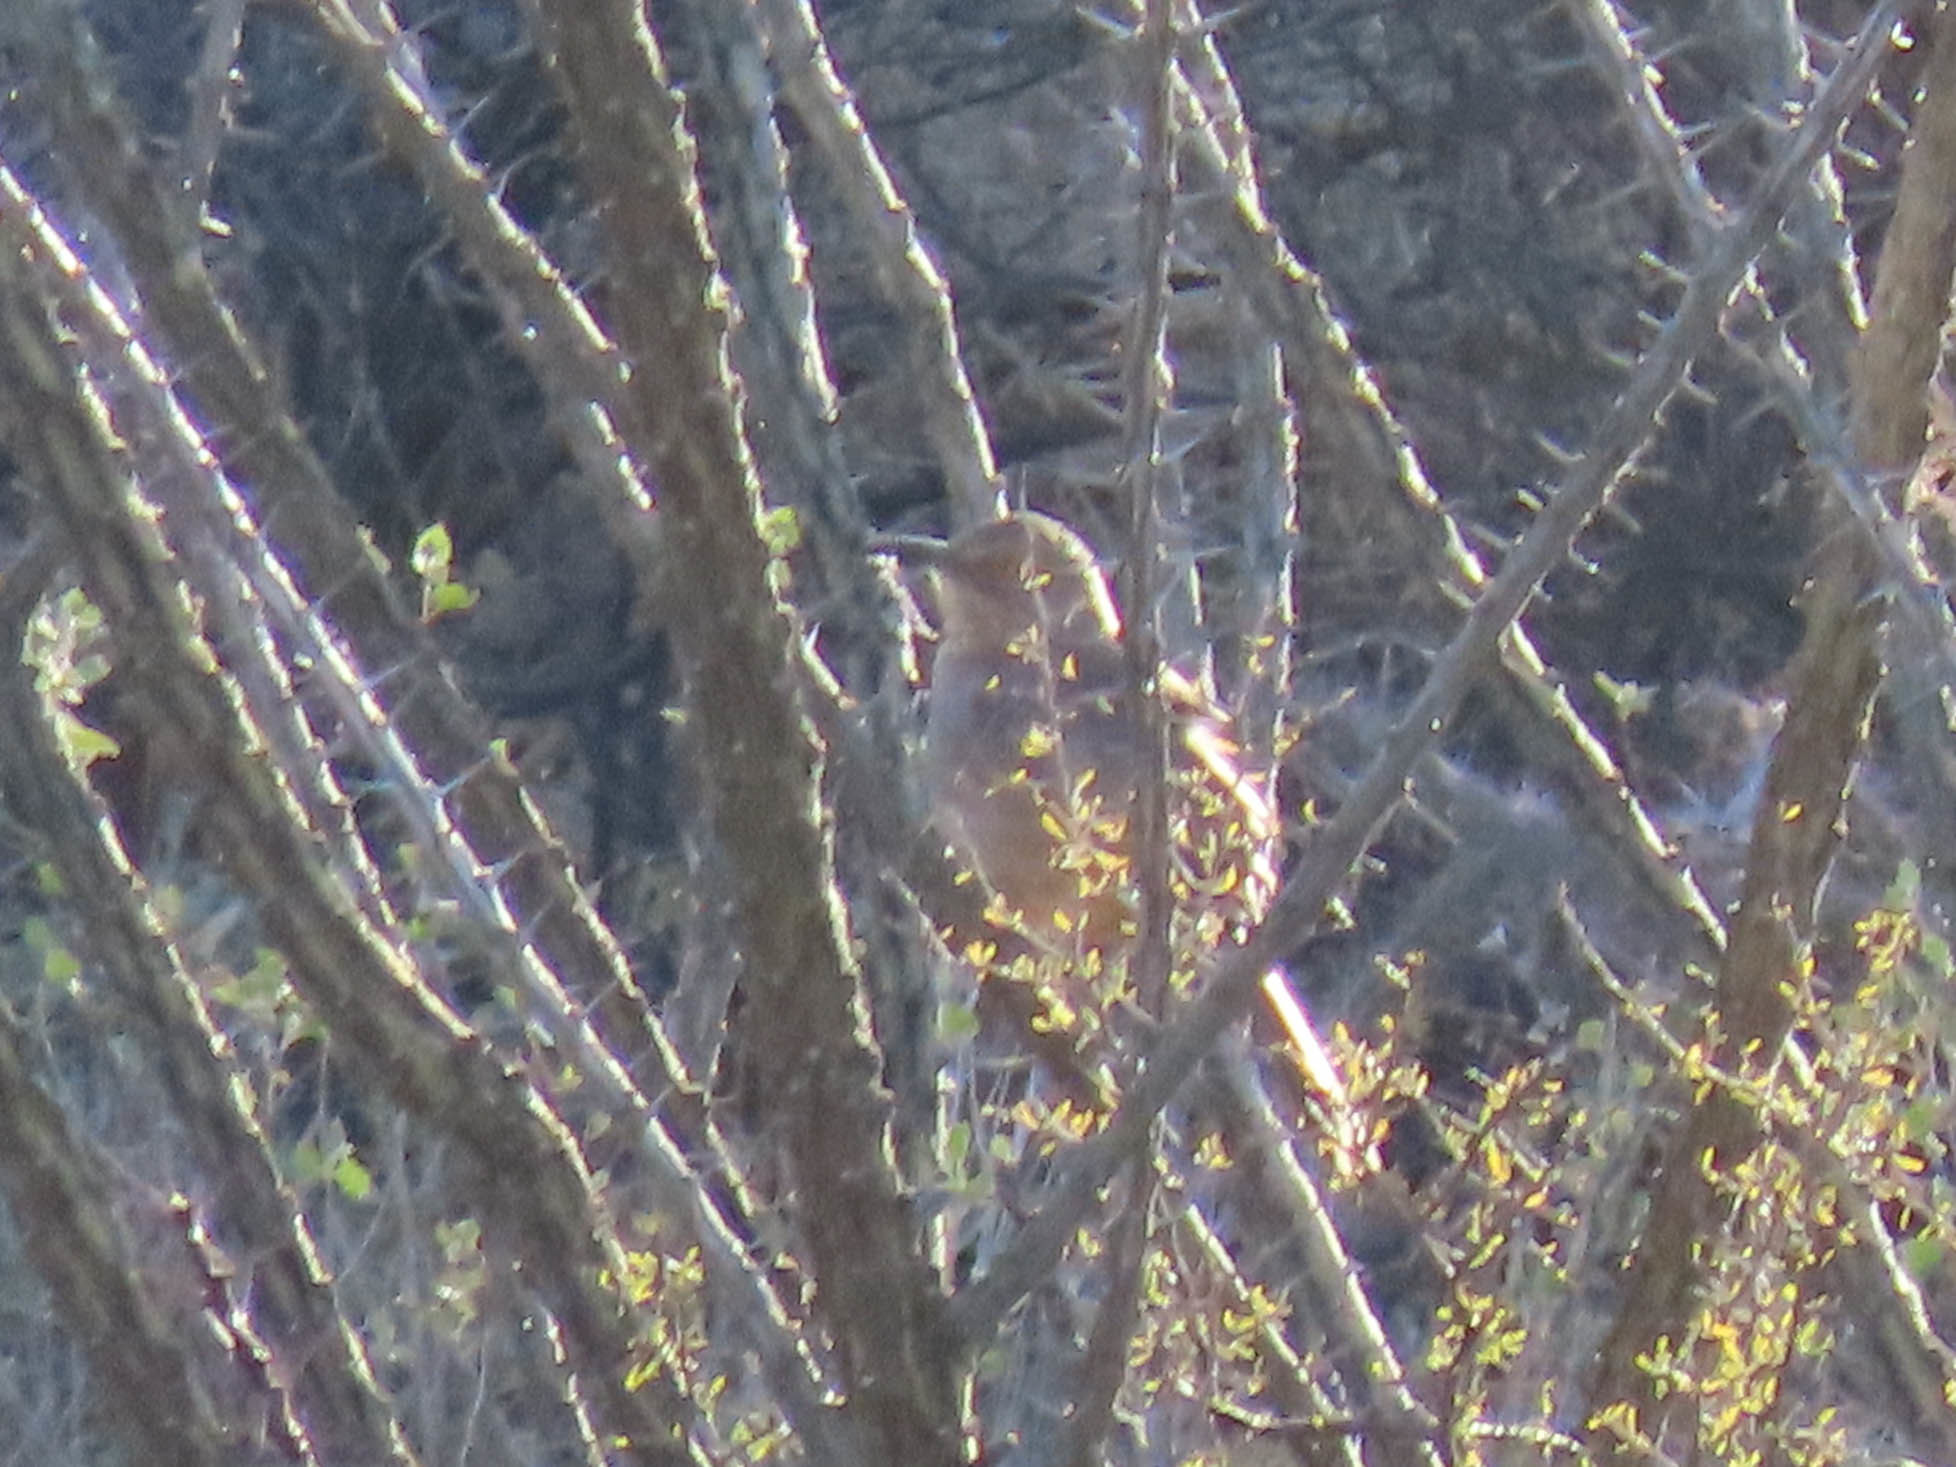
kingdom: Animalia
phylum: Chordata
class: Aves
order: Passeriformes
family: Mimidae
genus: Toxostoma
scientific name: Toxostoma curvirostre
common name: Curve-billed thrasher
